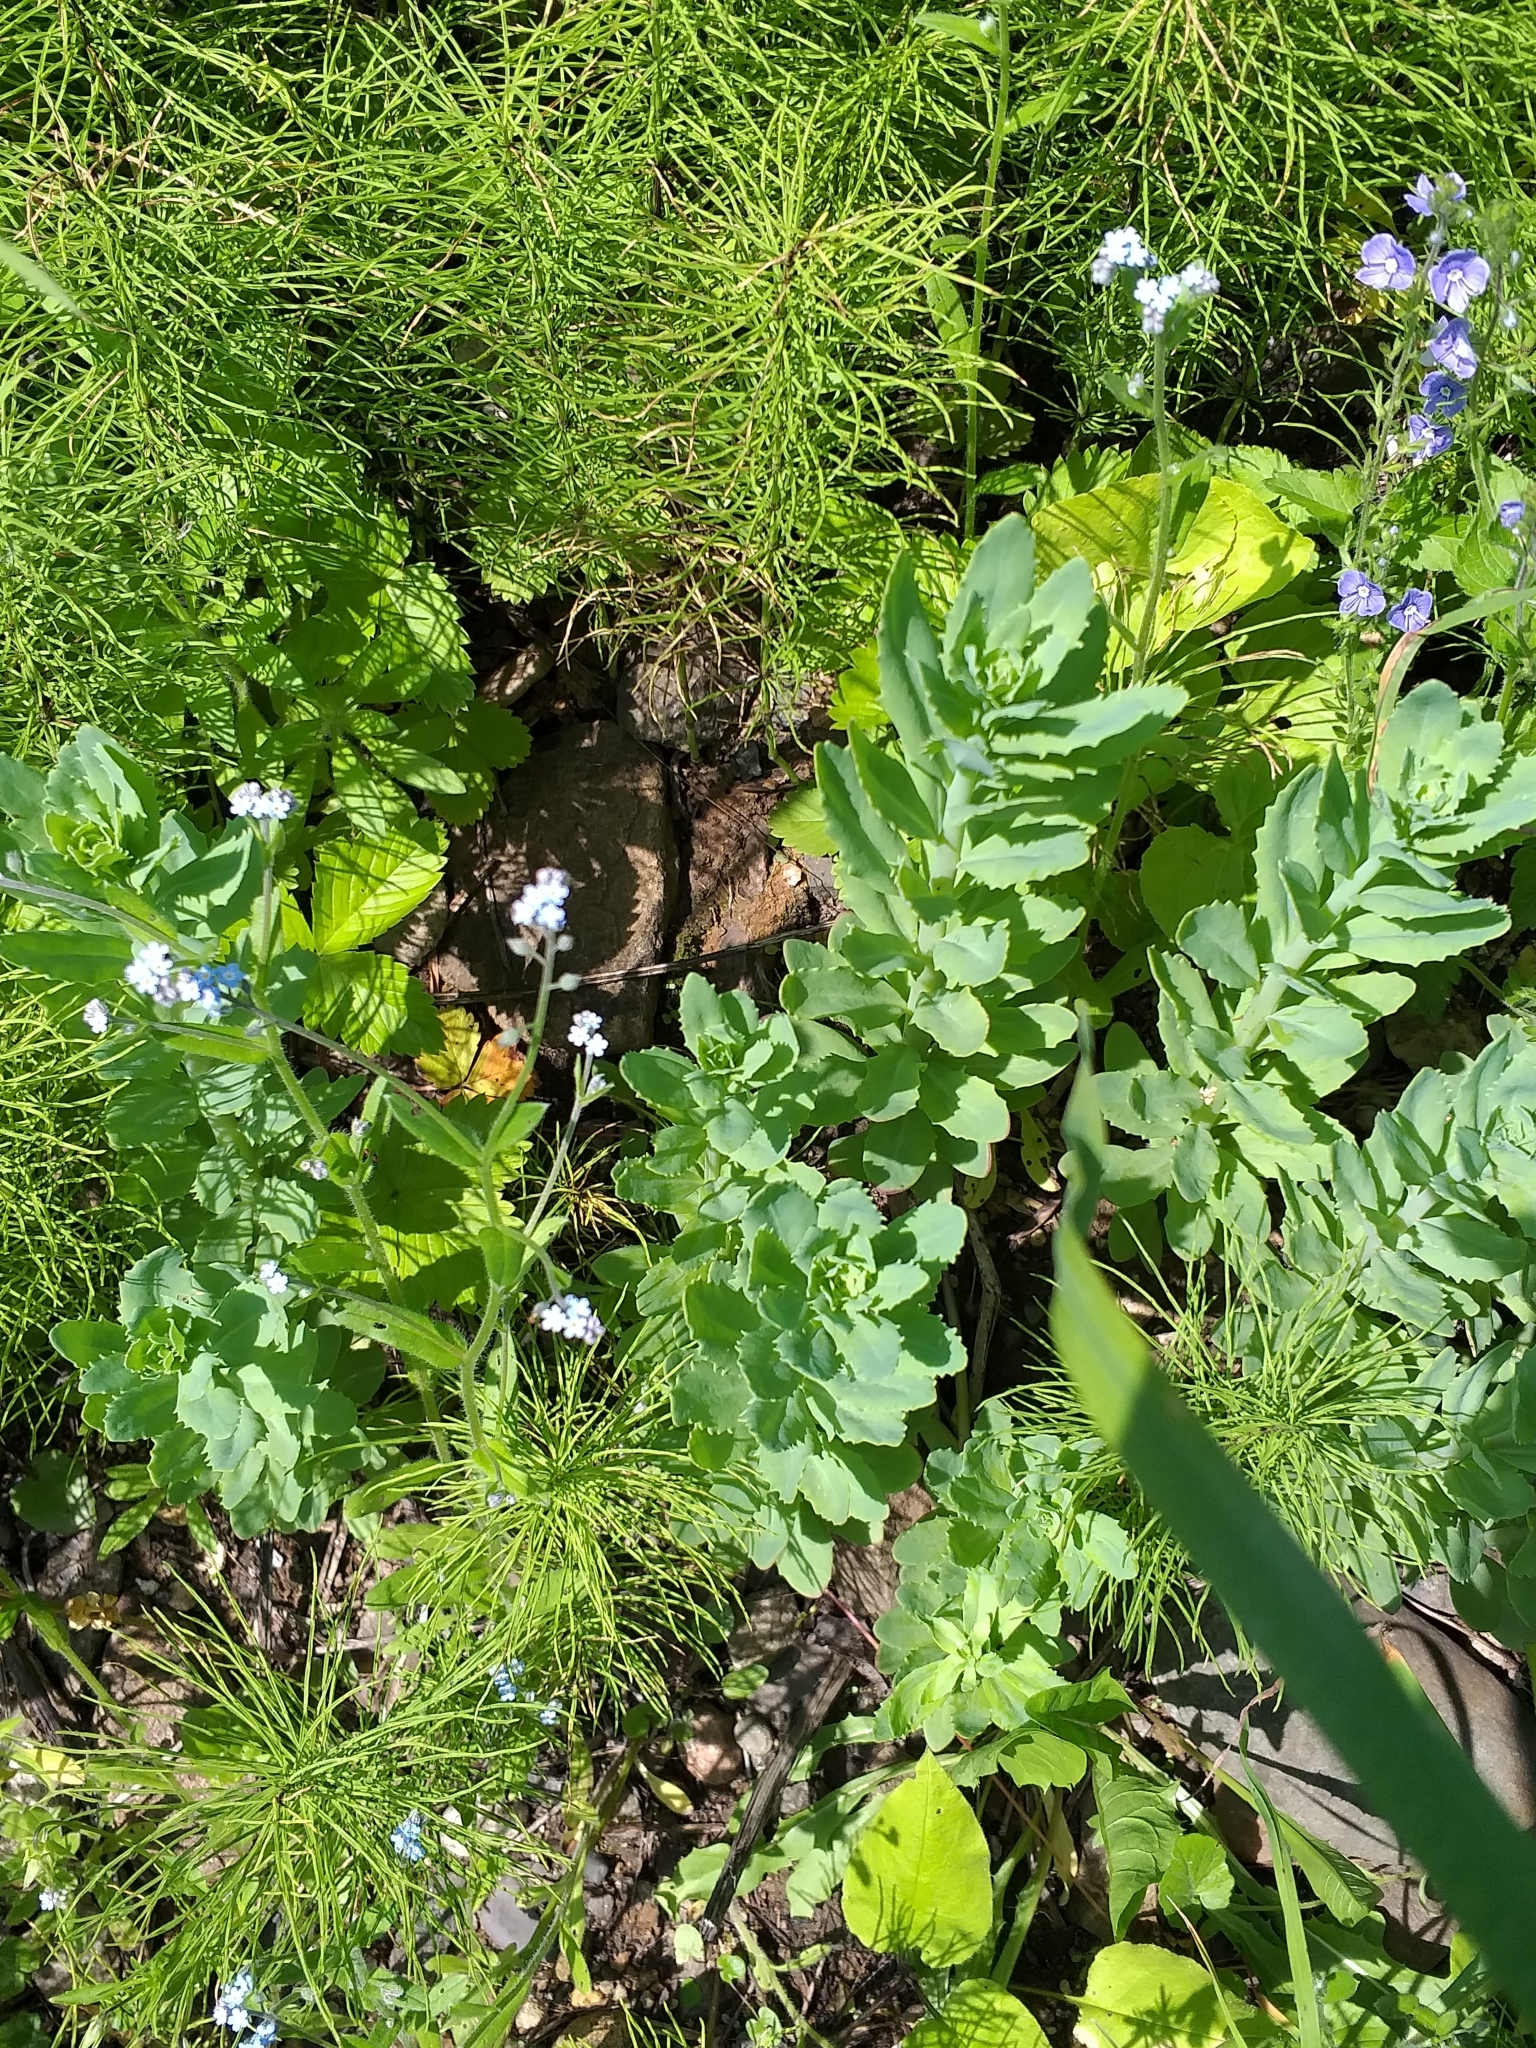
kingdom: Plantae
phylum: Tracheophyta
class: Magnoliopsida
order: Saxifragales
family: Crassulaceae
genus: Hylotelephium
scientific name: Hylotelephium telephium
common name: Live-forever
